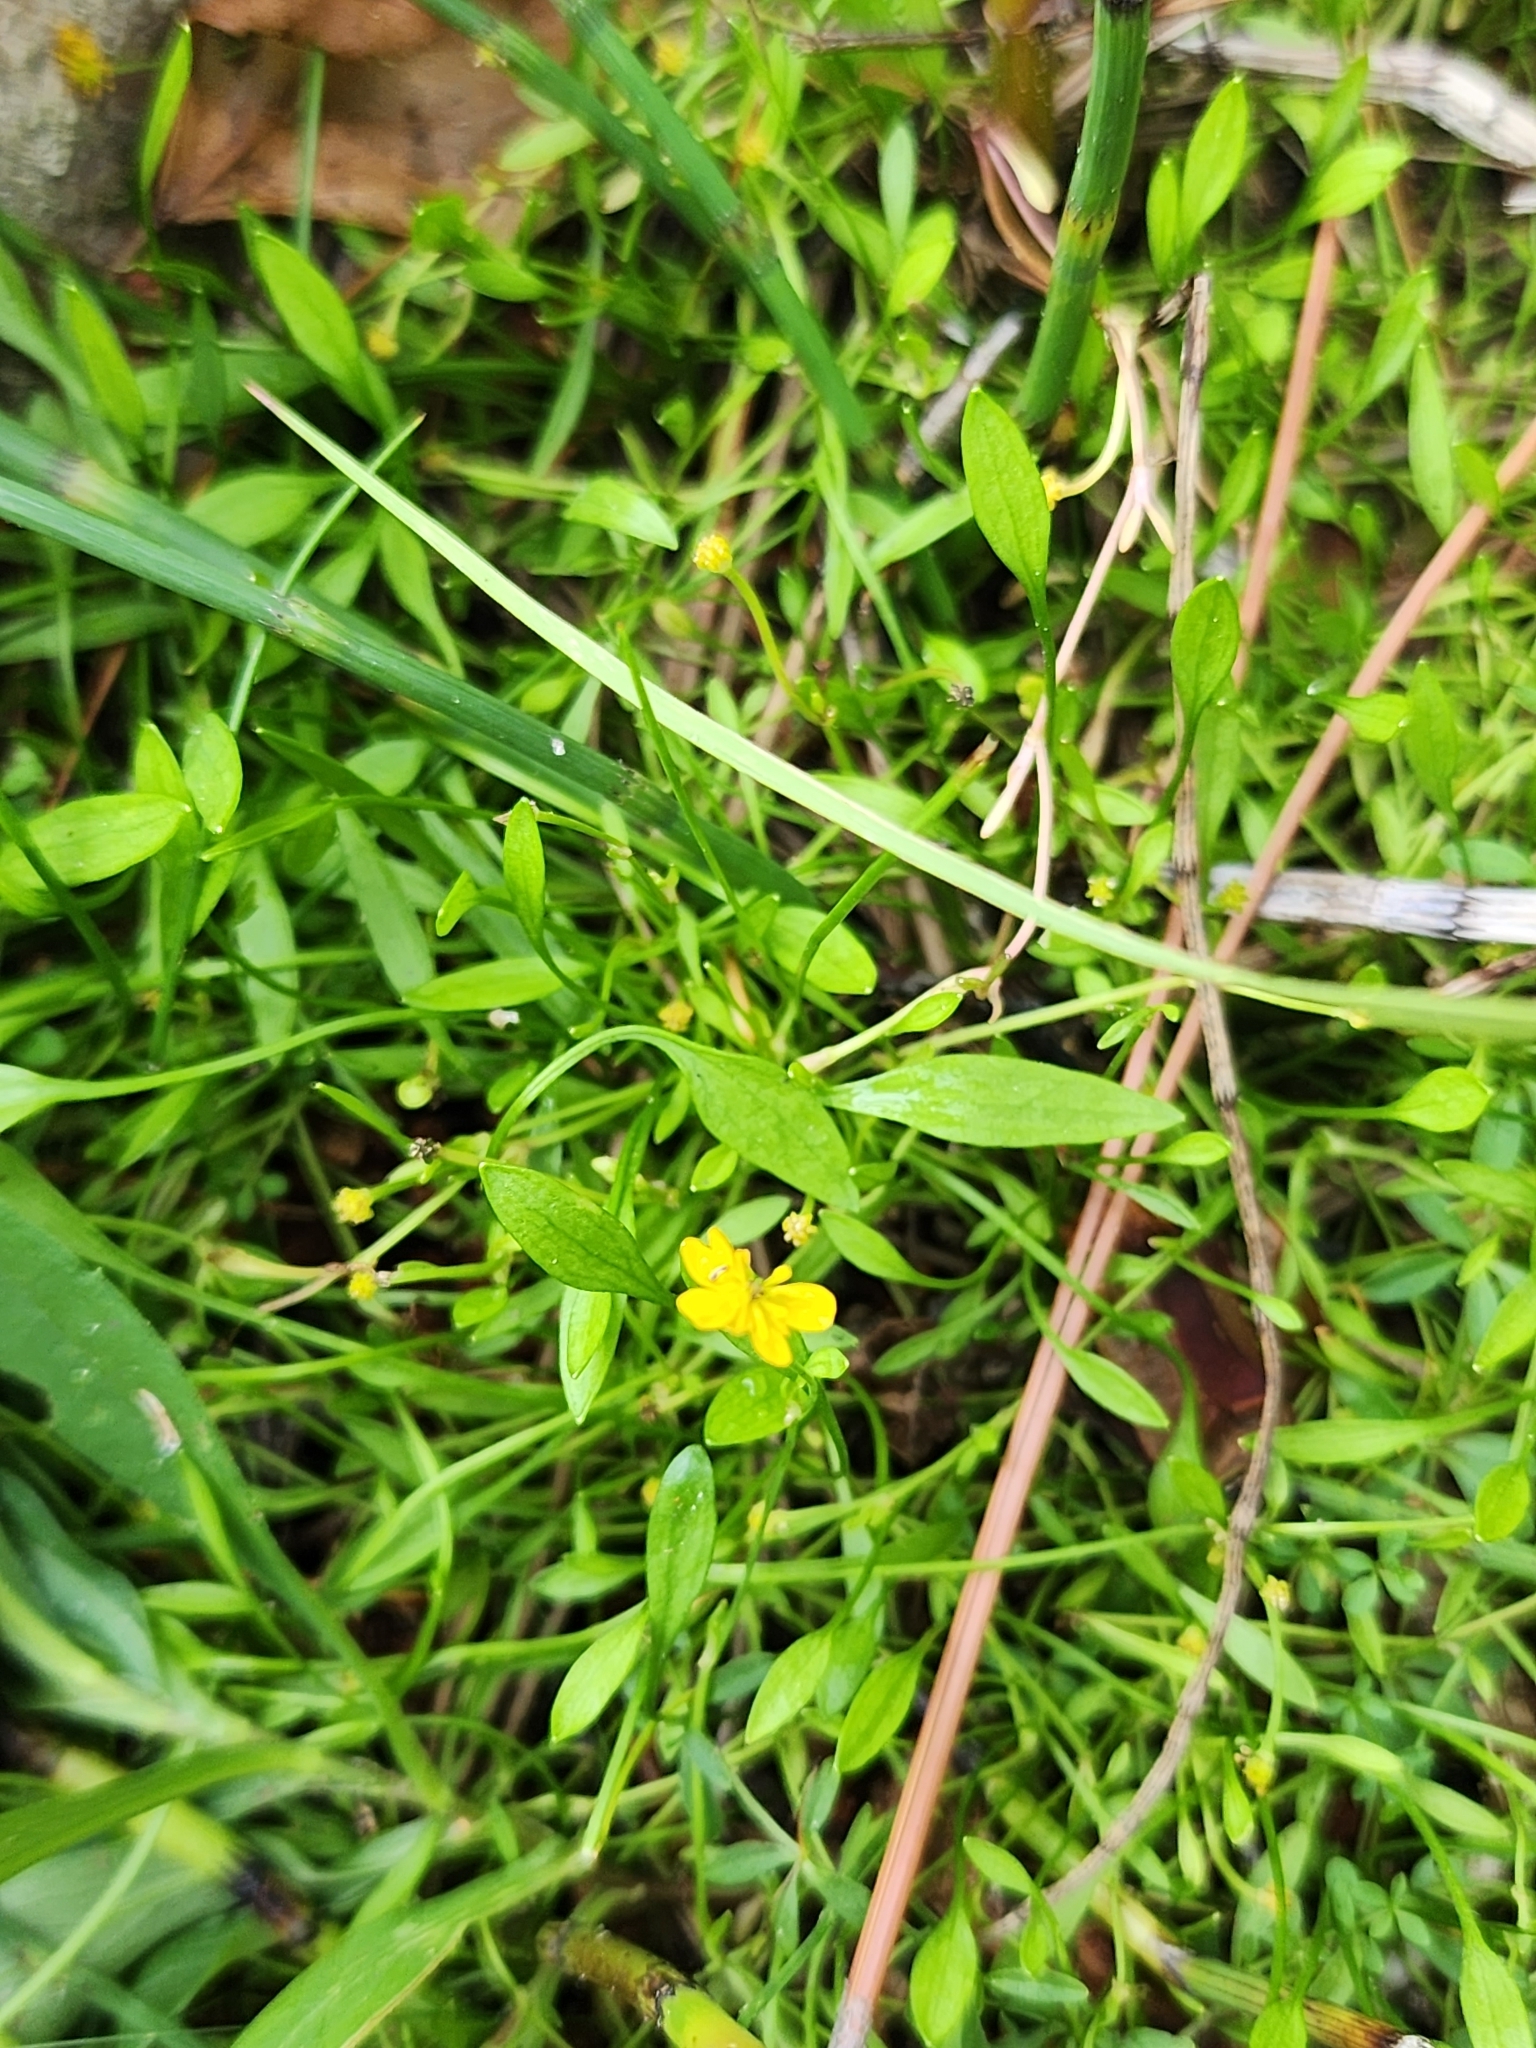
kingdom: Plantae
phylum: Tracheophyta
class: Magnoliopsida
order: Ranunculales
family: Ranunculaceae
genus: Ranunculus
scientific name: Ranunculus flammula
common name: Lesser spearwort
